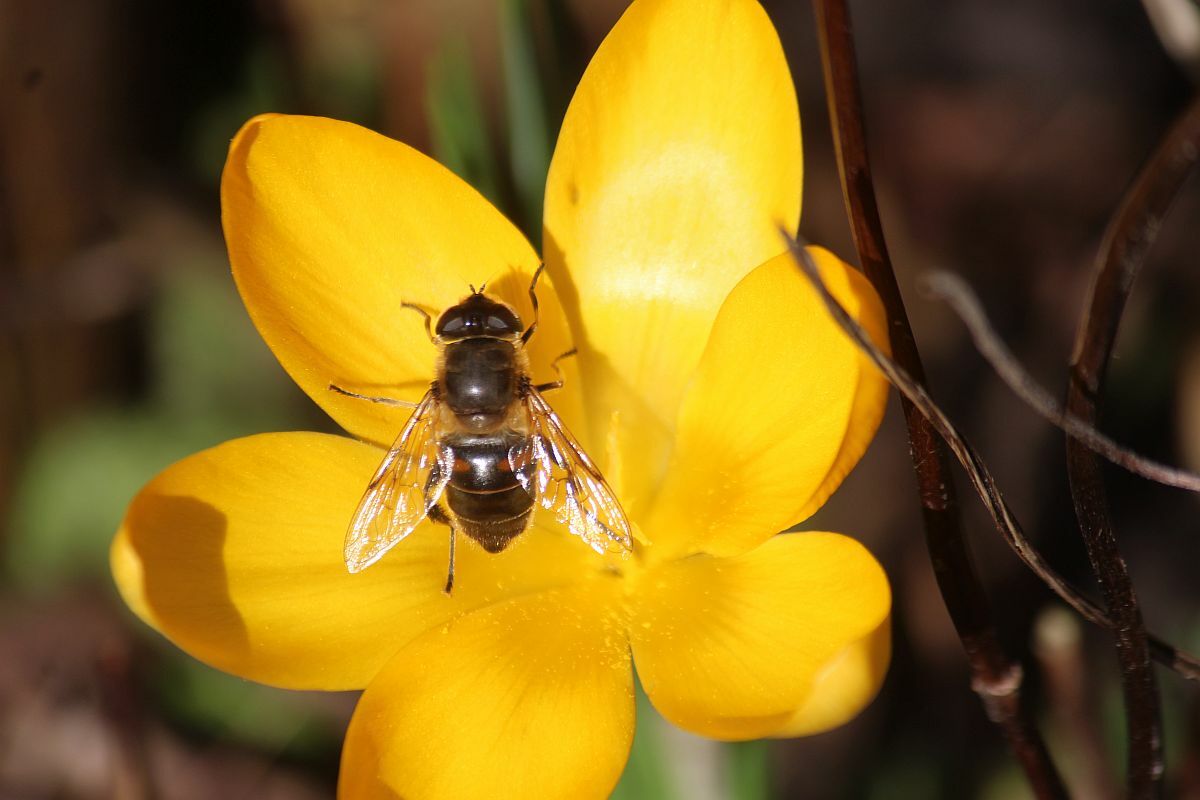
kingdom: Animalia
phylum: Arthropoda
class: Insecta
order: Diptera
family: Syrphidae
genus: Eristalis
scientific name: Eristalis tenax
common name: Drone fly
